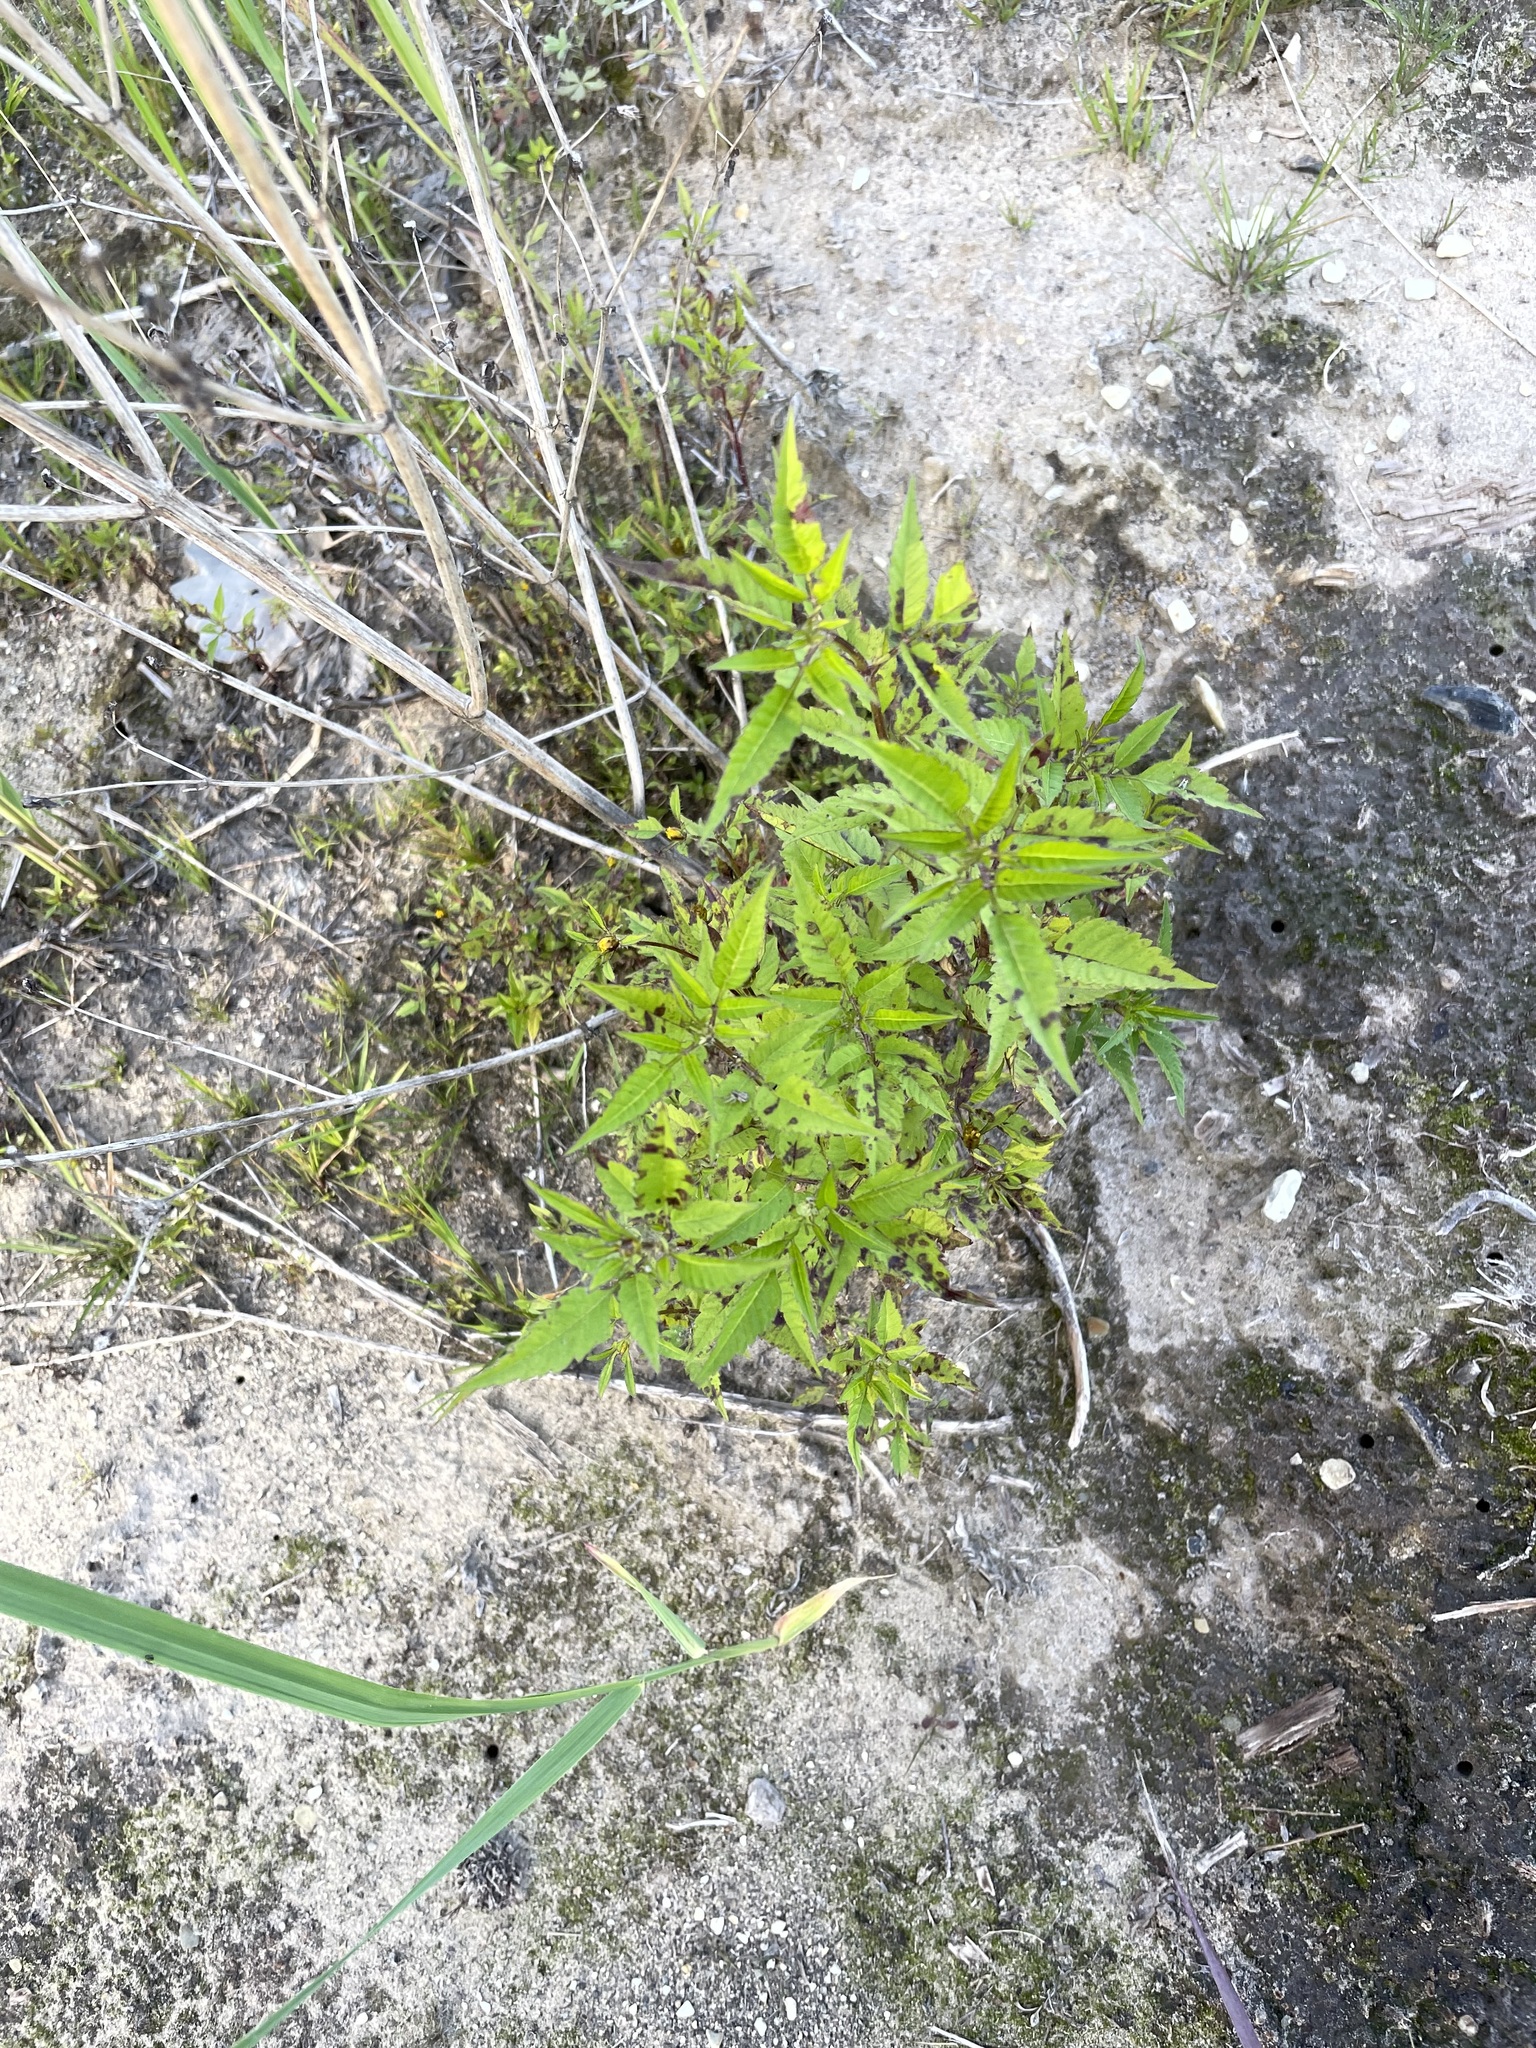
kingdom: Plantae
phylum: Tracheophyta
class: Magnoliopsida
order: Asterales
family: Asteraceae
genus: Bidens
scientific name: Bidens frondosa
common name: Beggarticks
